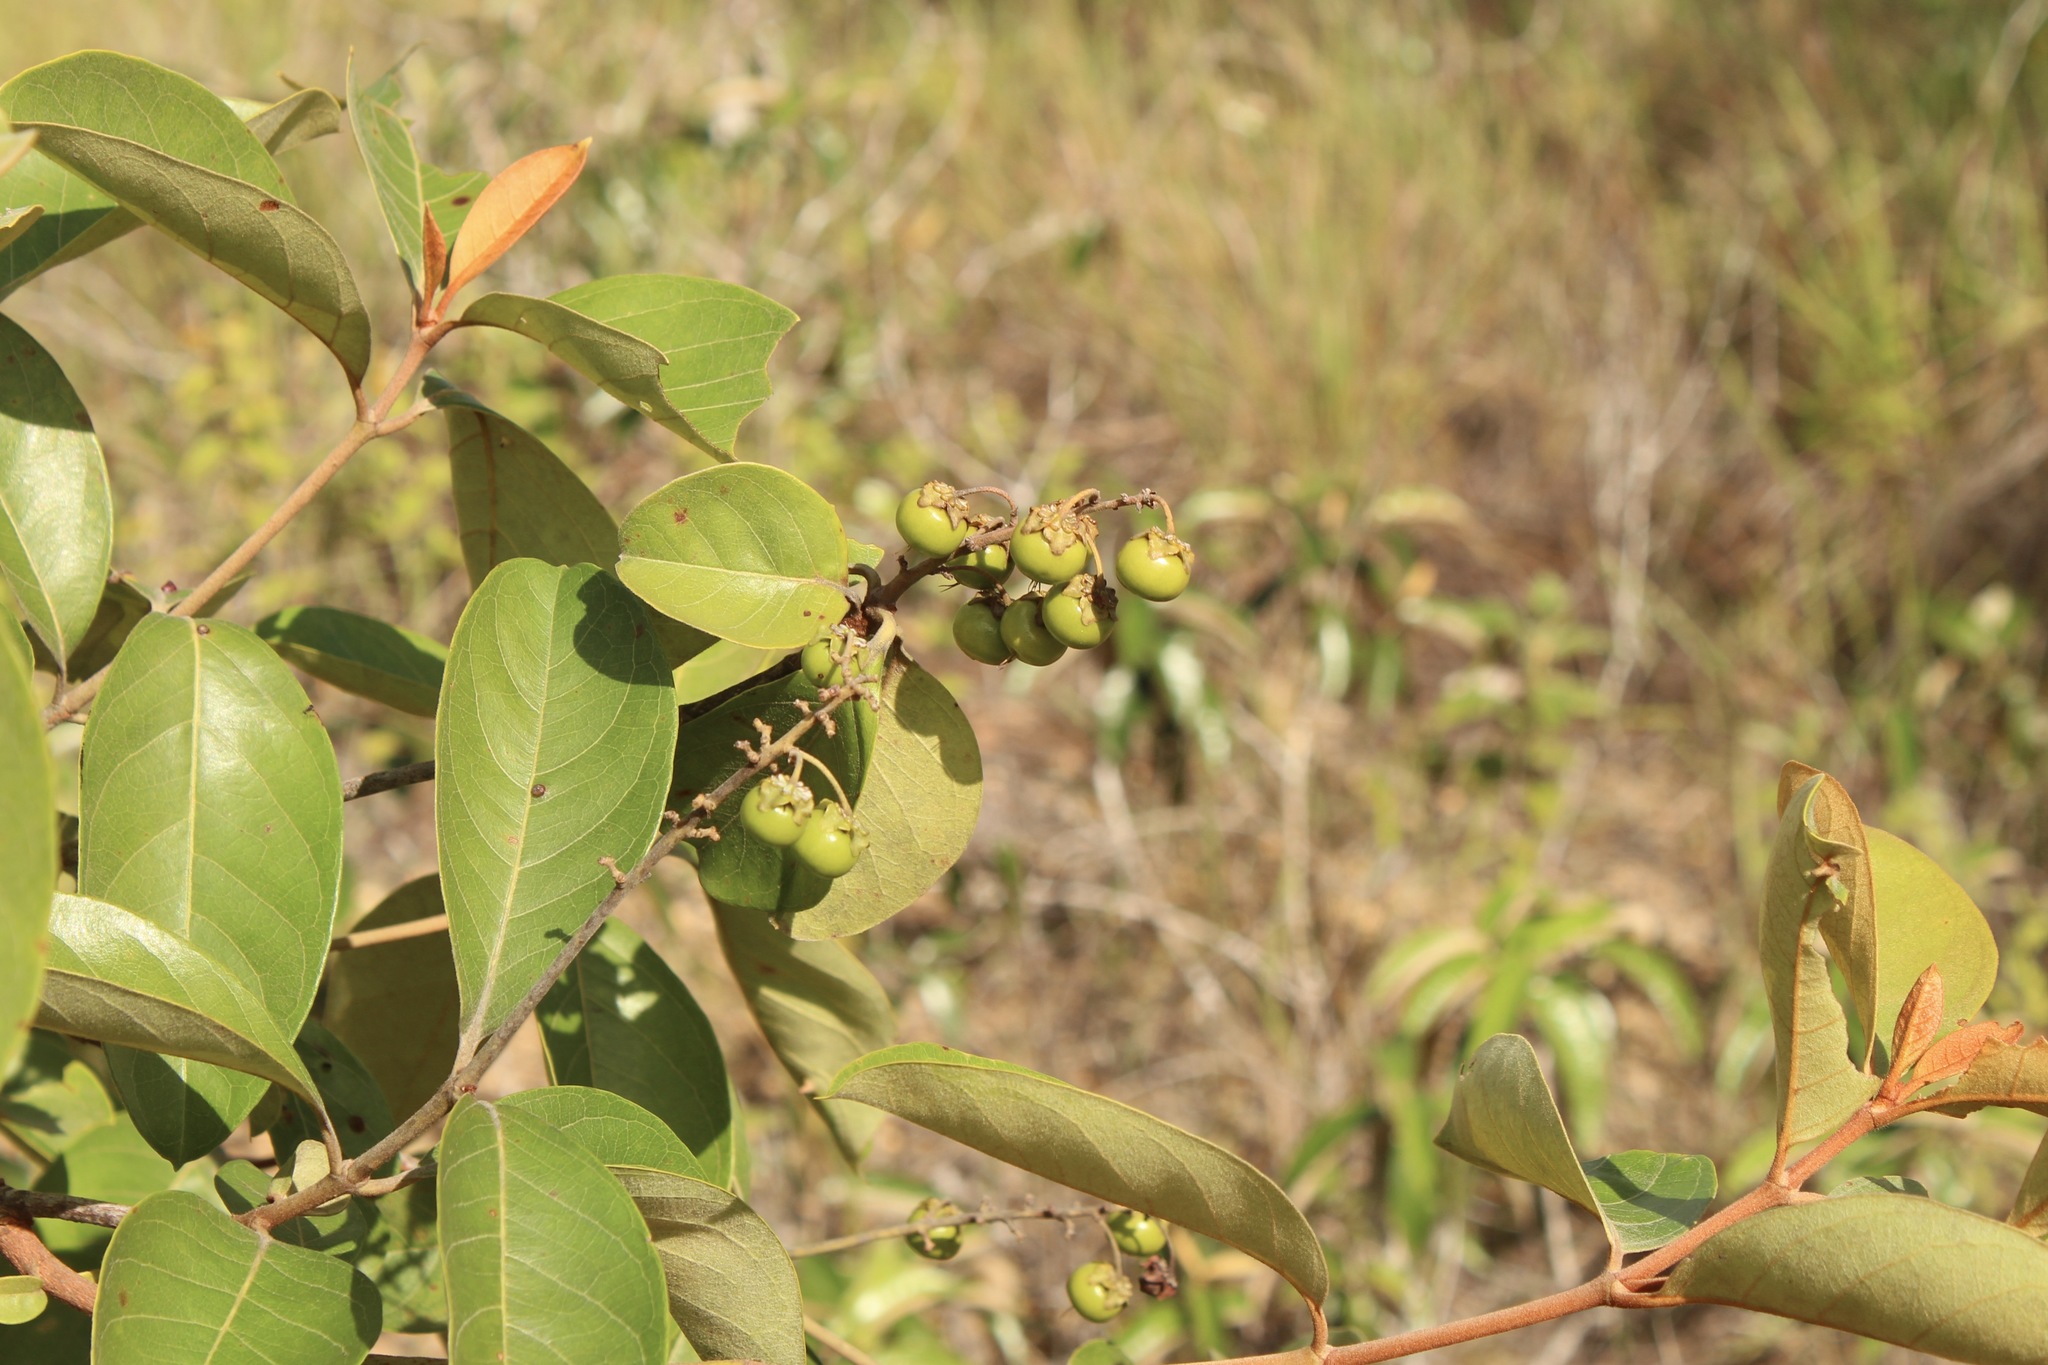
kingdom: Plantae
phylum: Tracheophyta
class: Magnoliopsida
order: Malpighiales
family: Malpighiaceae
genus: Byrsonima
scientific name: Byrsonima crassifolia
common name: Golden spoon
